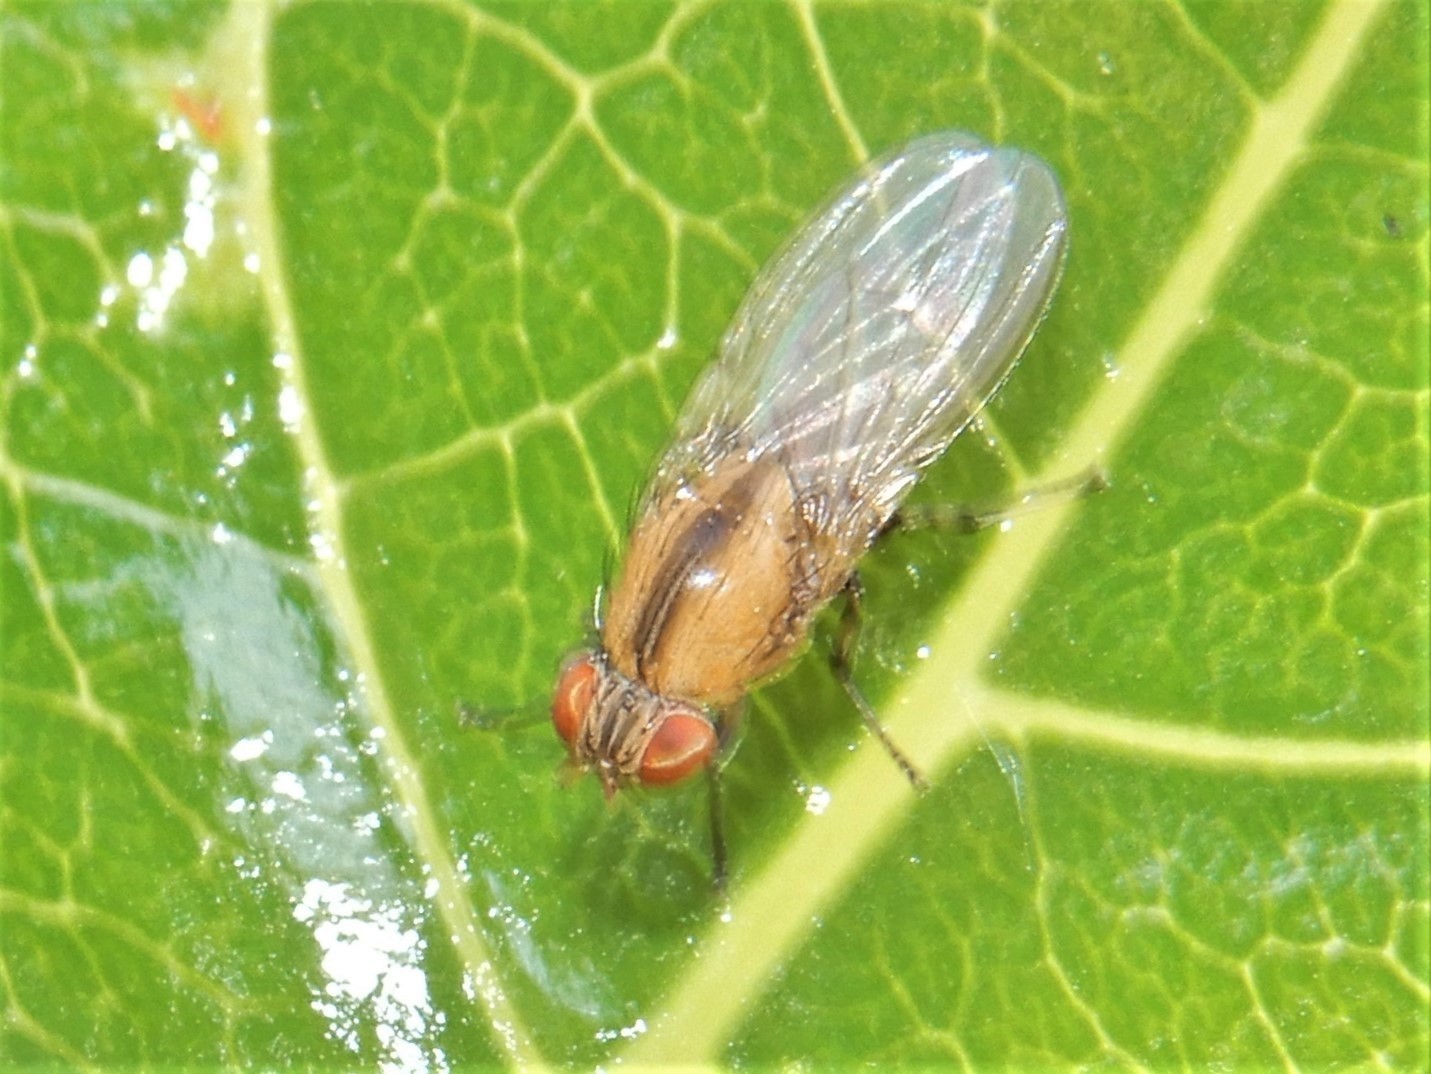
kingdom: Animalia
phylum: Arthropoda
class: Insecta
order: Diptera
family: Lauxaniidae
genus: Sapromyza
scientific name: Sapromyza neozelandica
